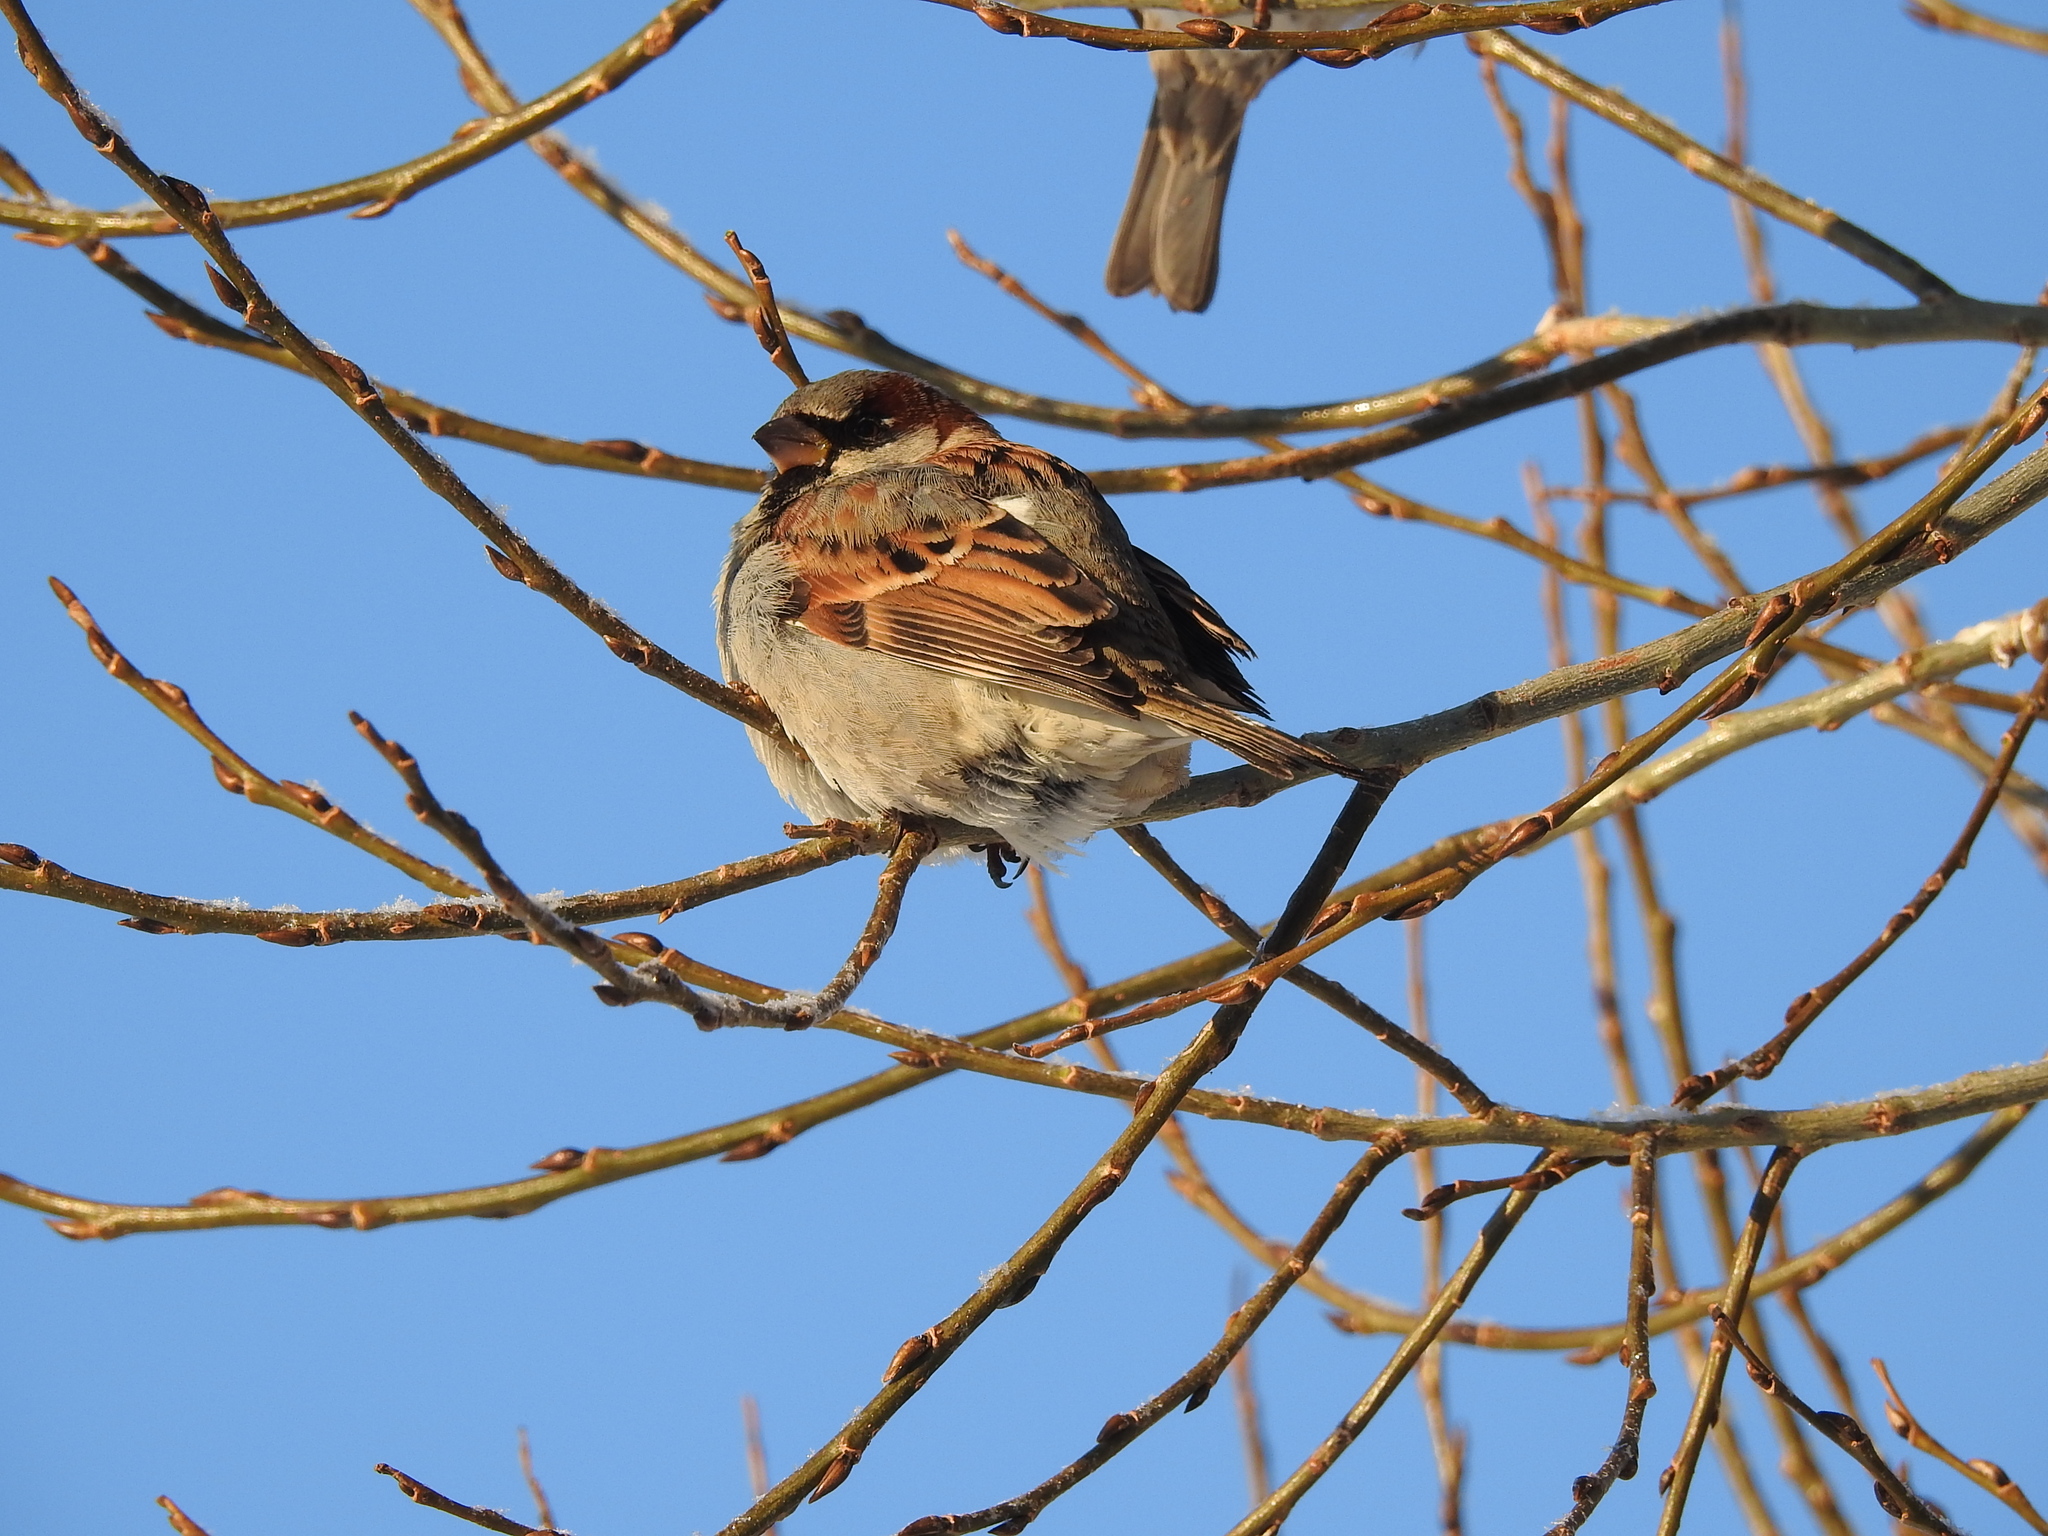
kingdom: Animalia
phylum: Chordata
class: Aves
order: Passeriformes
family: Passeridae
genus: Passer
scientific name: Passer domesticus
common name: House sparrow
